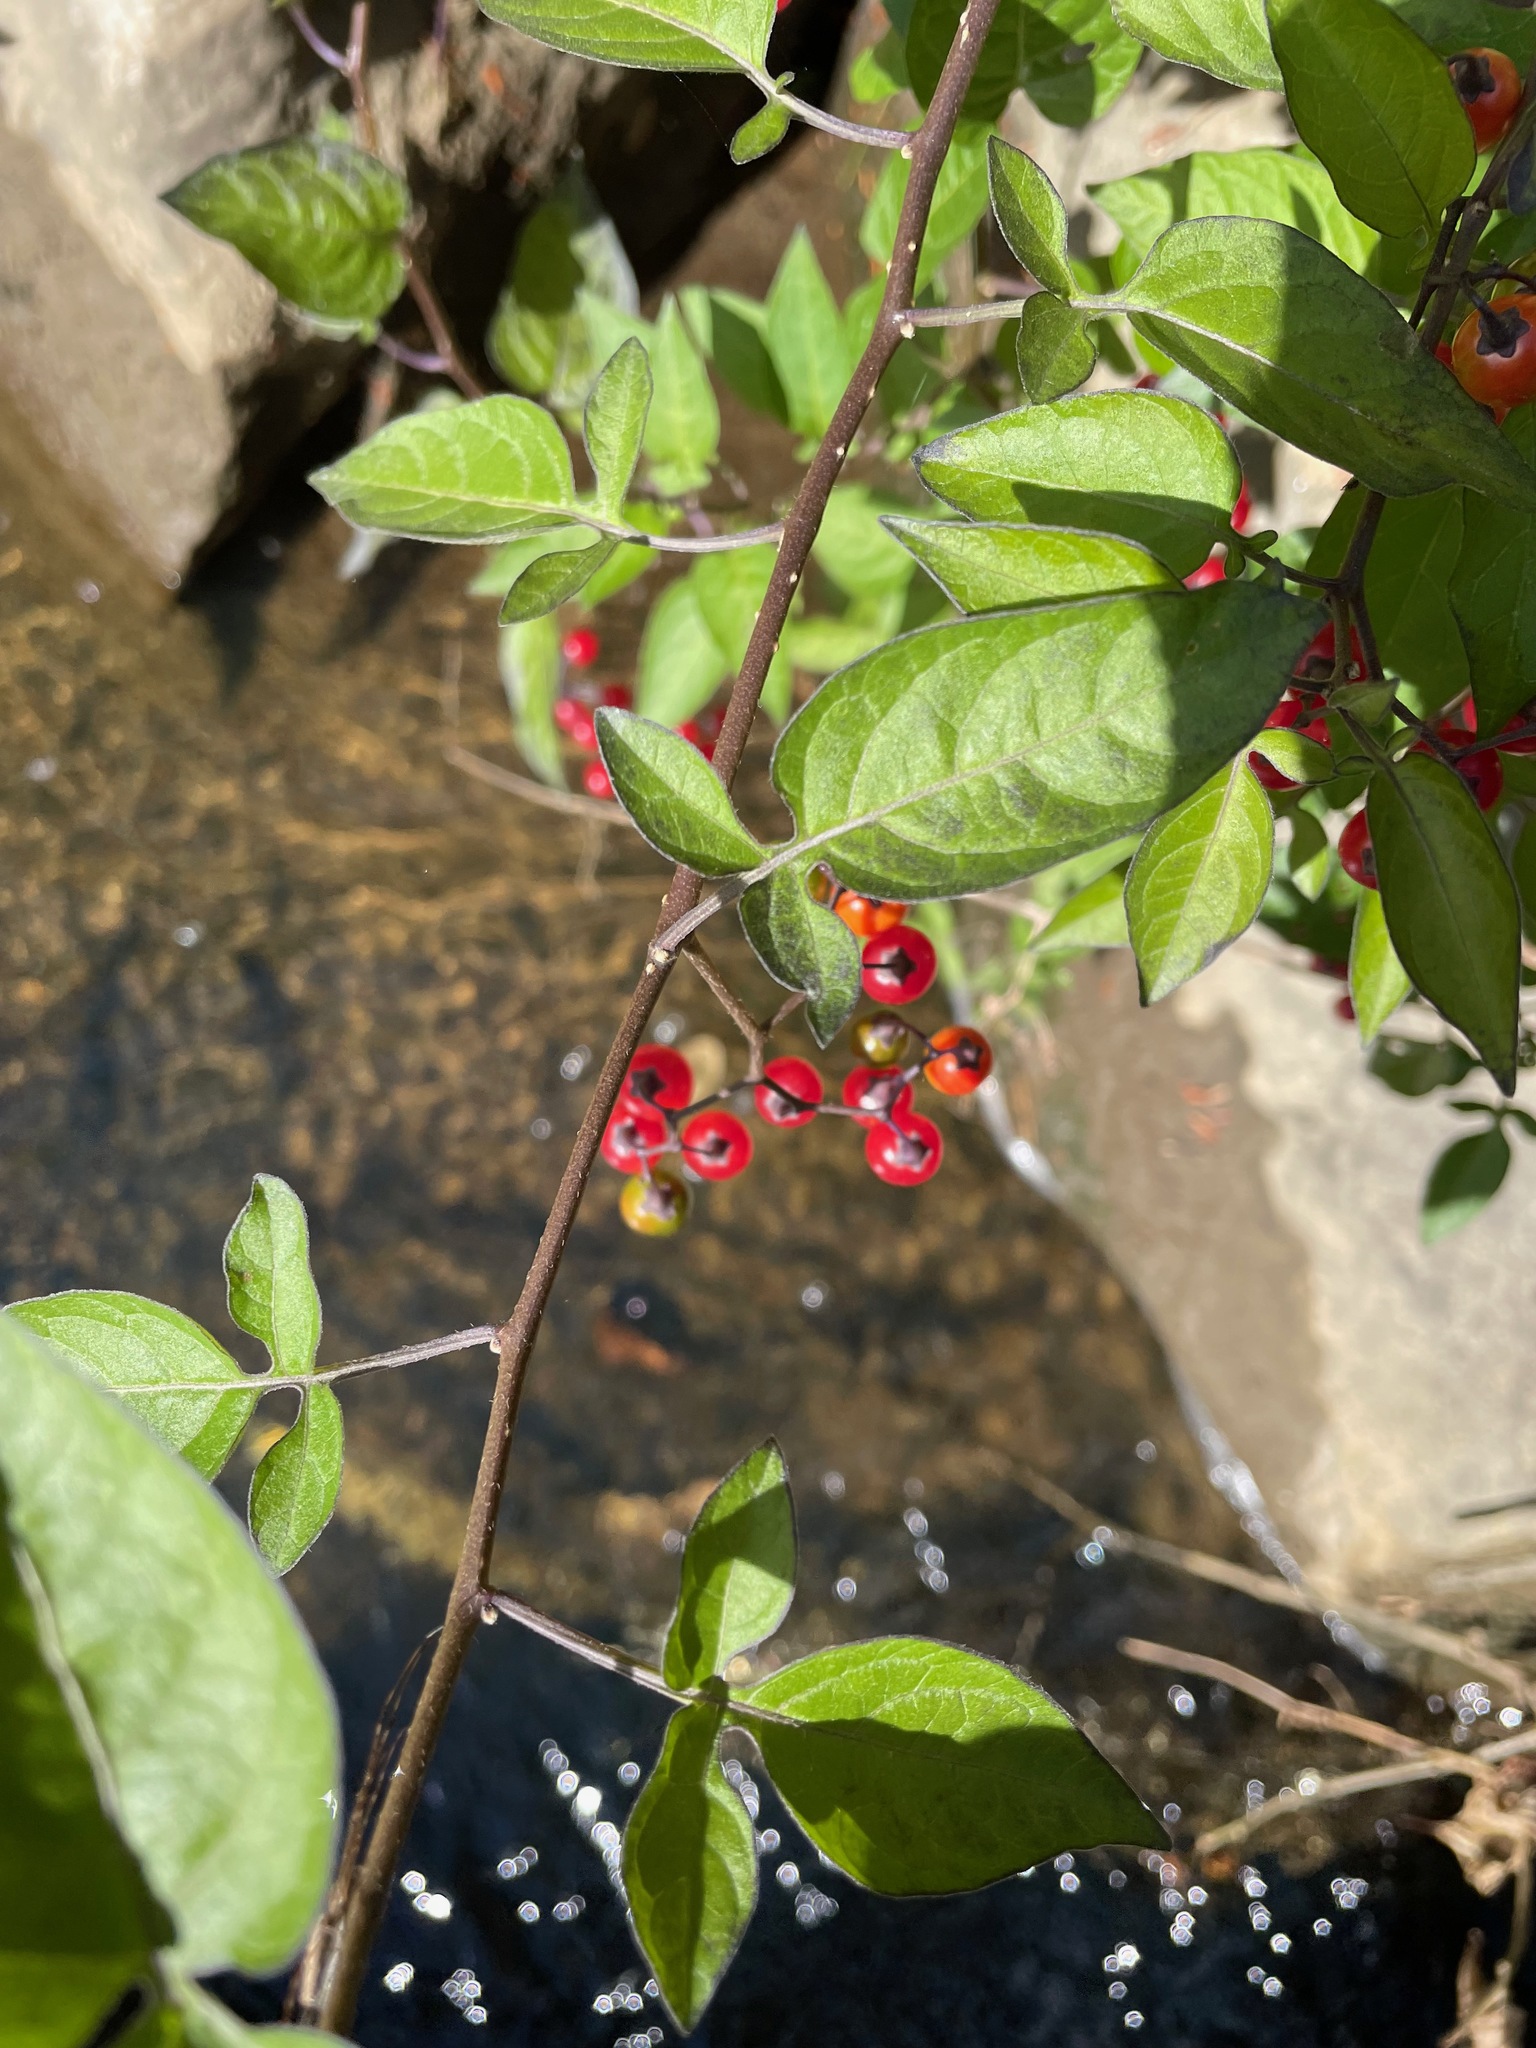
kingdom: Plantae
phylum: Tracheophyta
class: Magnoliopsida
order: Solanales
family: Solanaceae
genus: Solanum
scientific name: Solanum dulcamara
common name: Climbing nightshade
